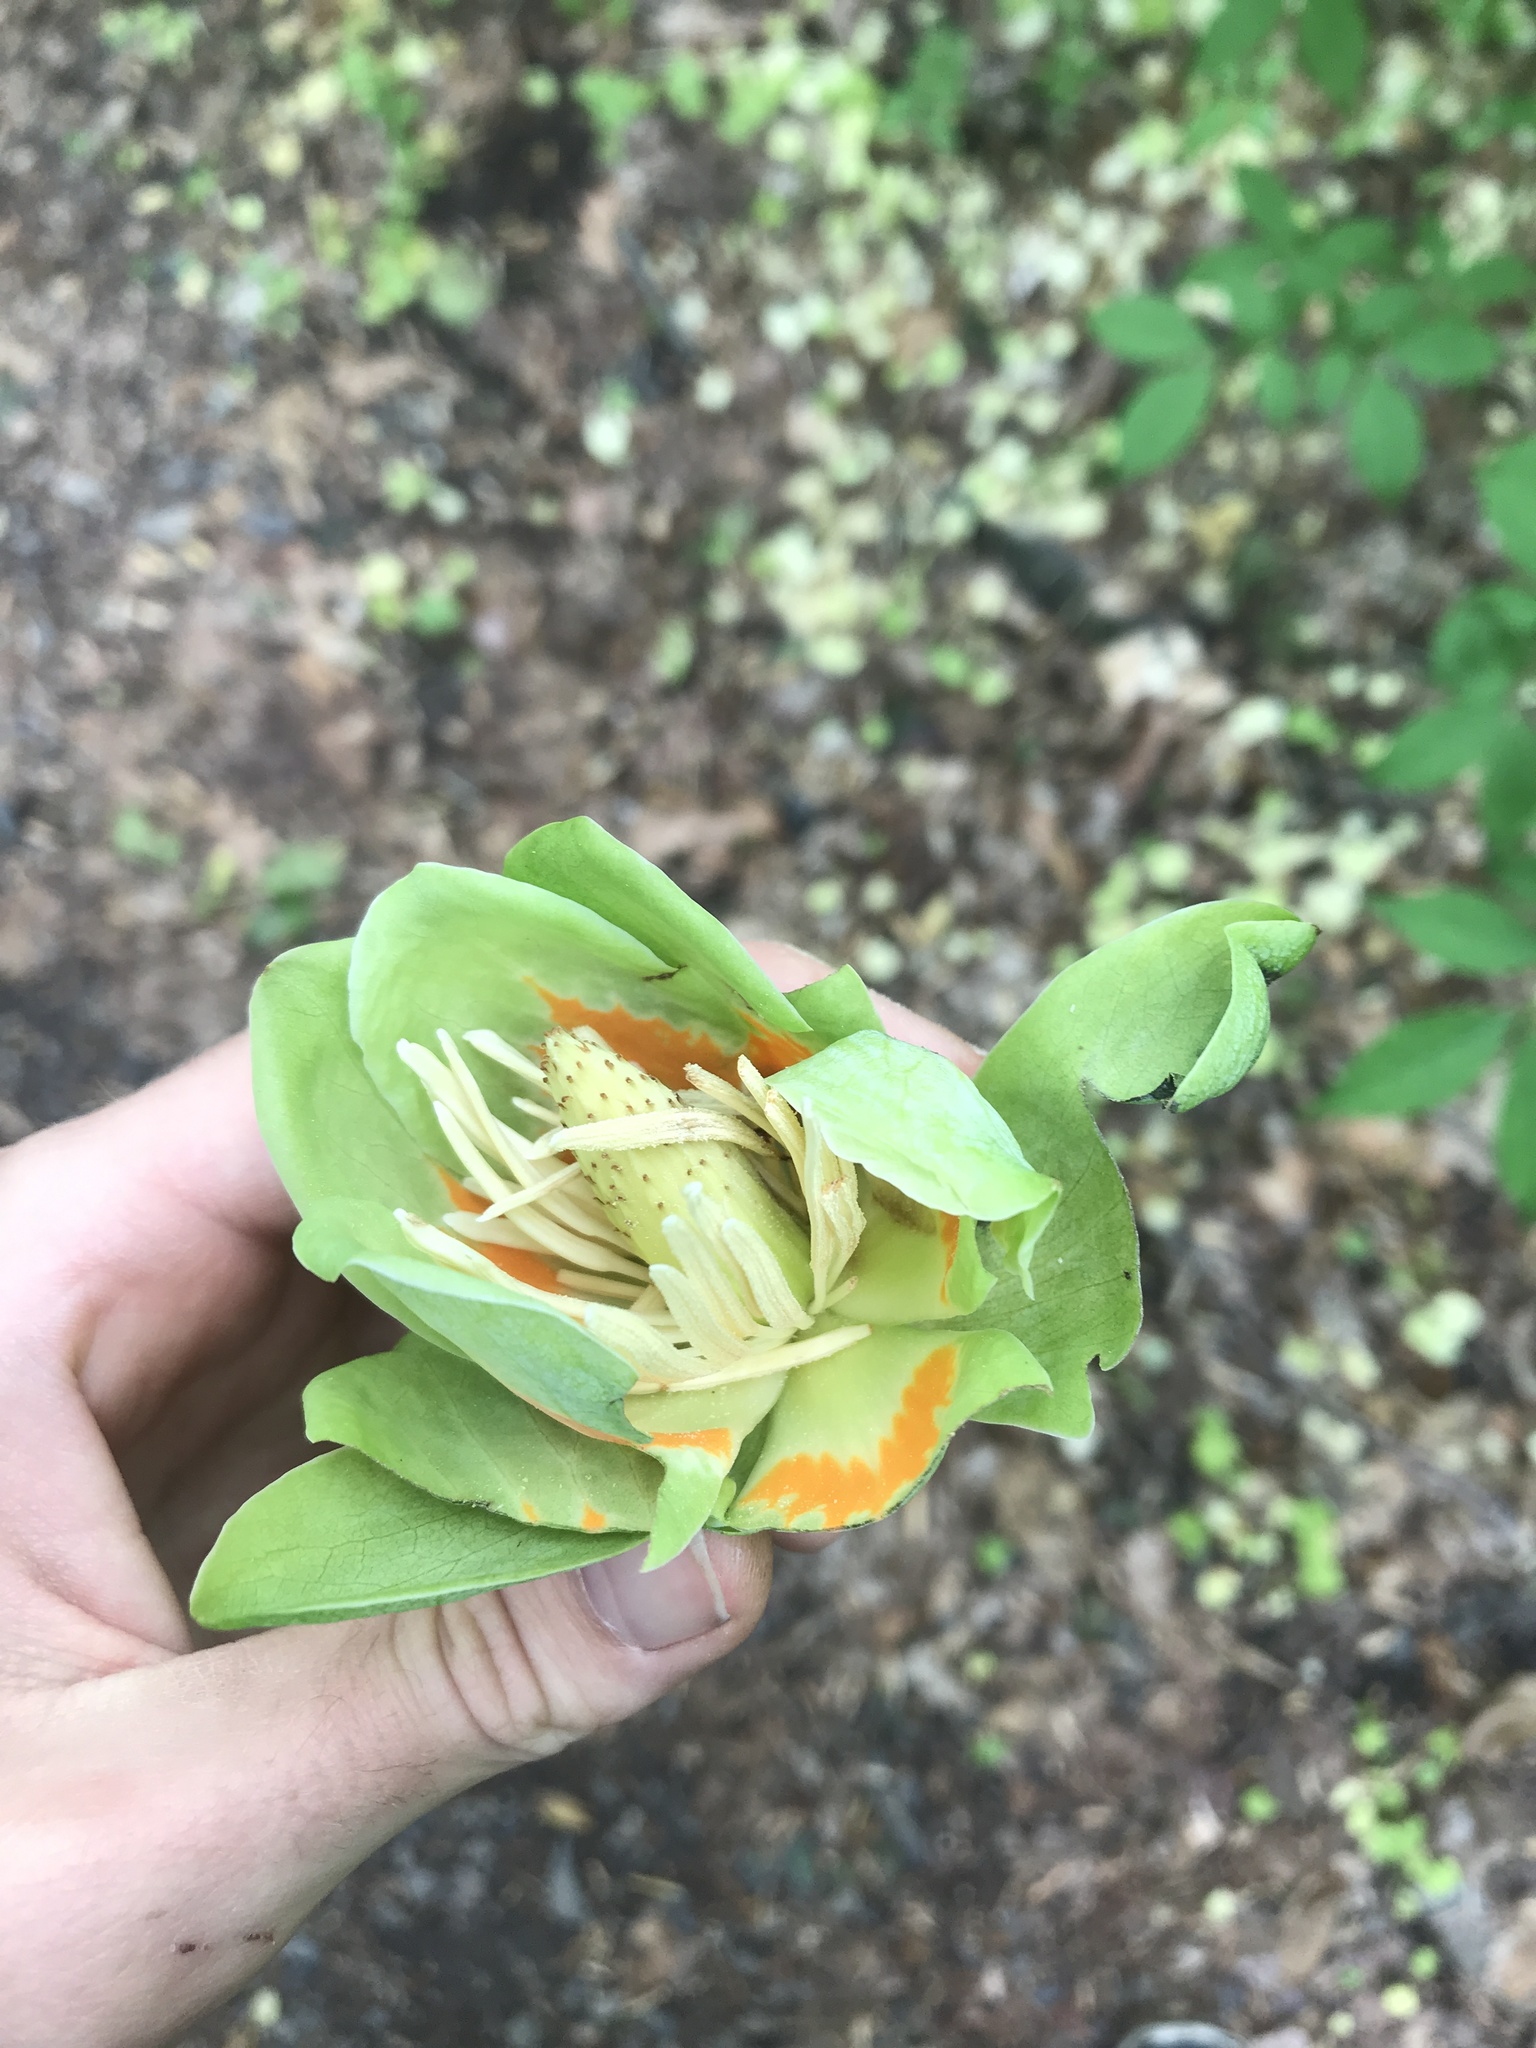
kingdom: Plantae
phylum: Tracheophyta
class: Magnoliopsida
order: Magnoliales
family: Magnoliaceae
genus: Liriodendron
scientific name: Liriodendron tulipifera
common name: Tulip tree
